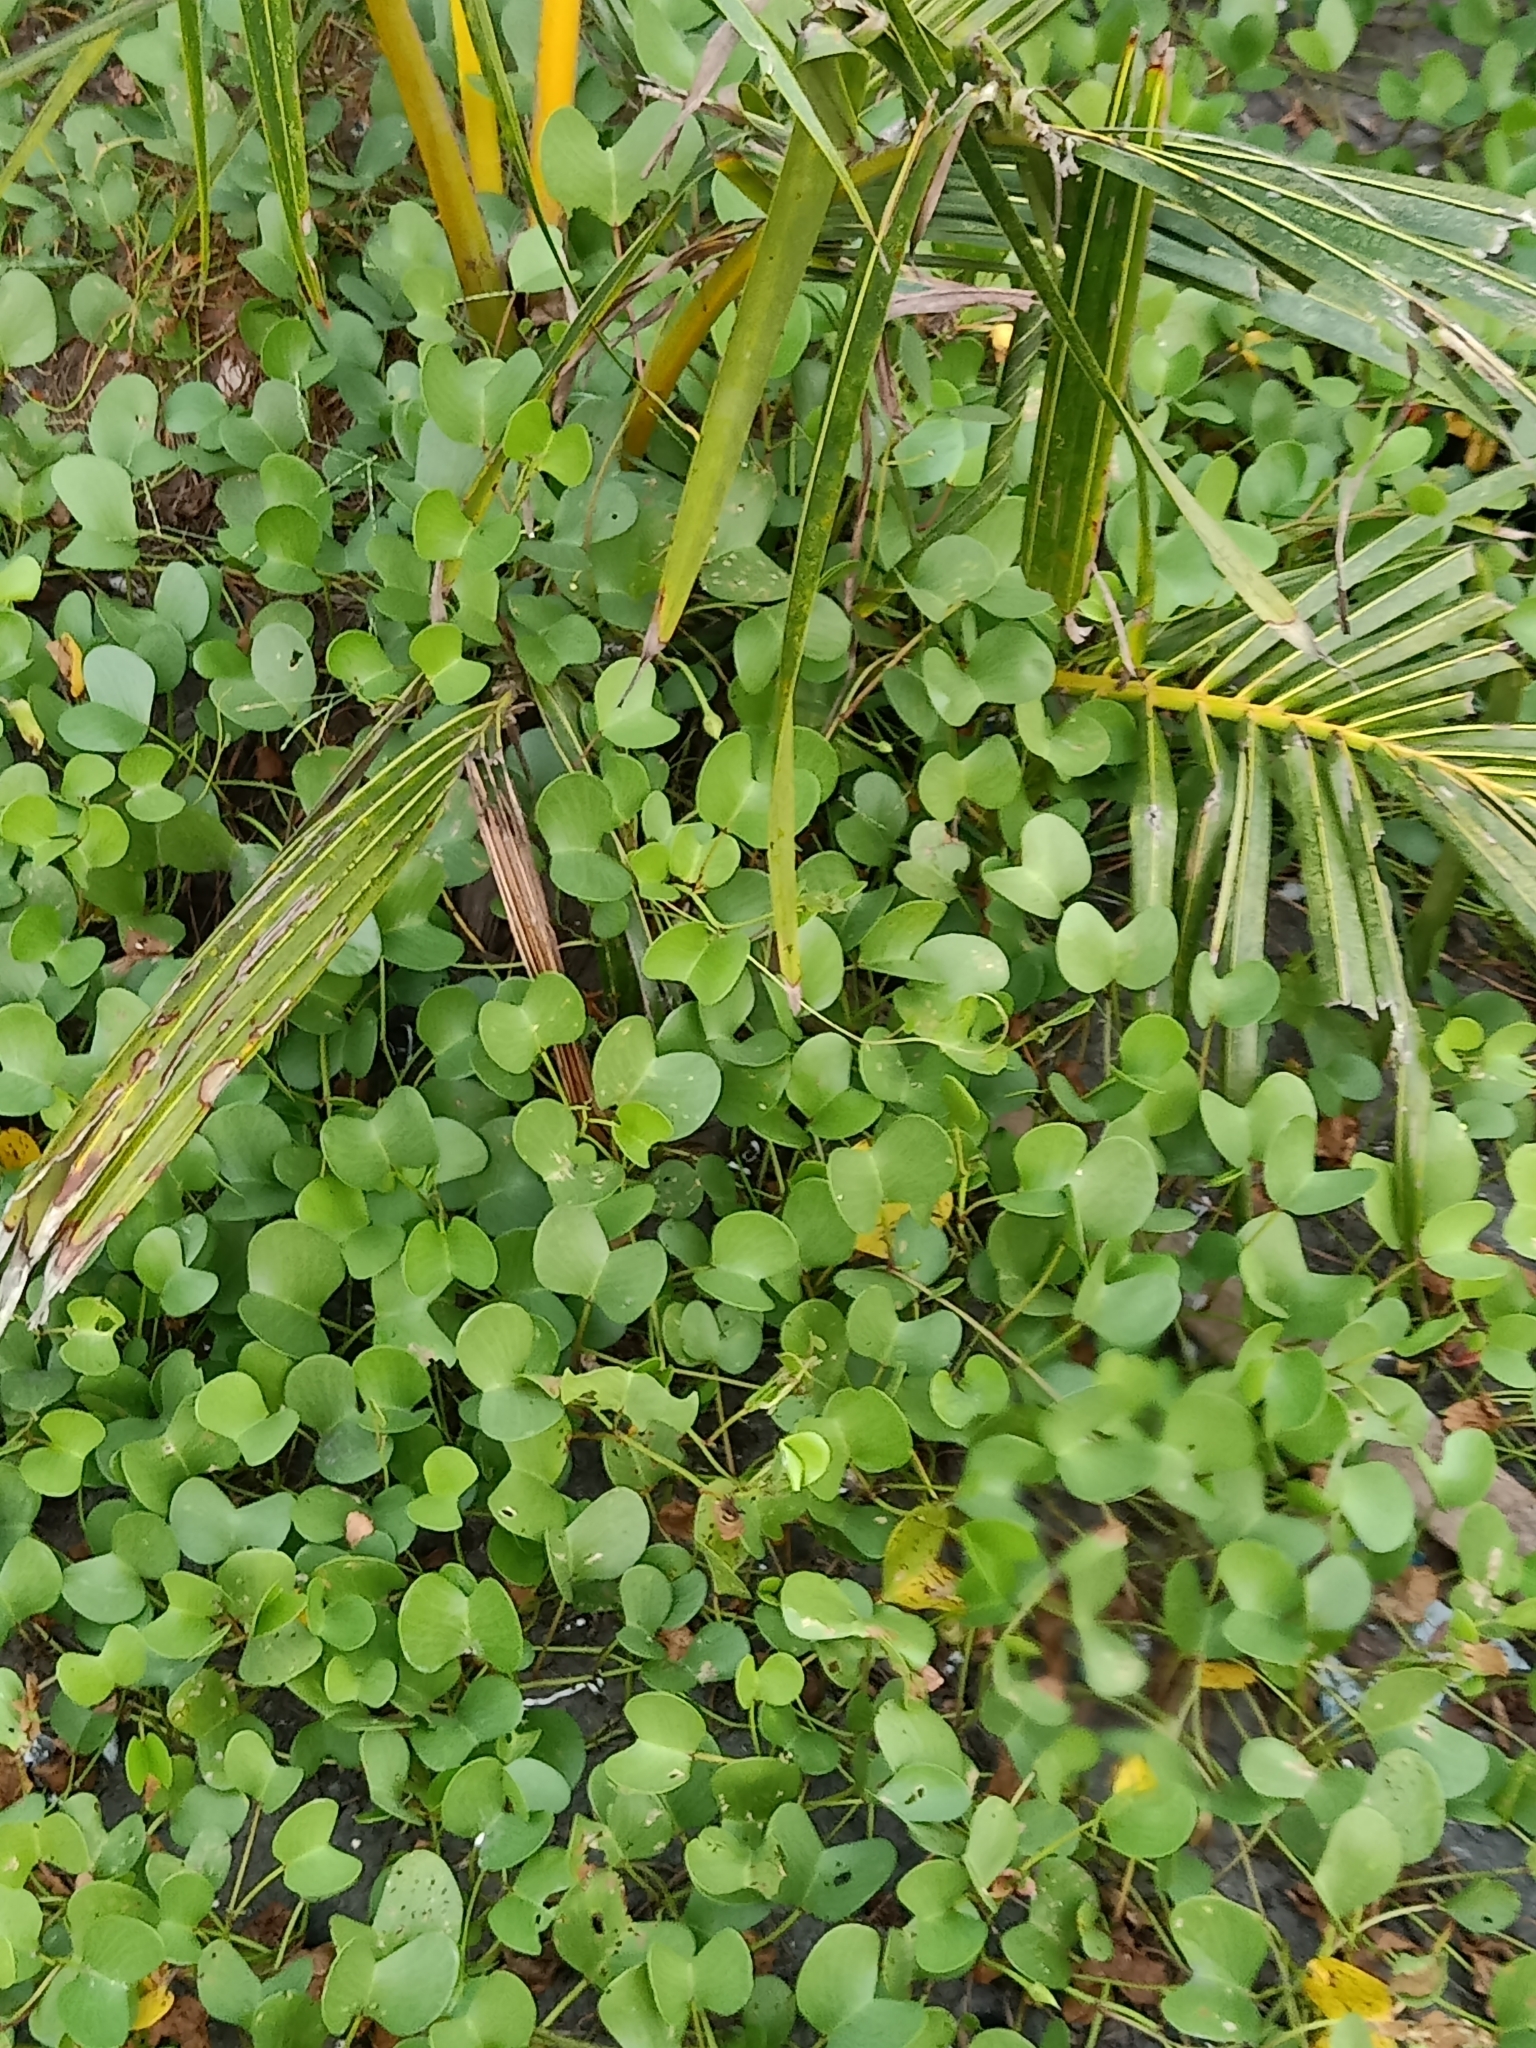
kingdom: Plantae
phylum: Tracheophyta
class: Magnoliopsida
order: Solanales
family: Convolvulaceae
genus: Ipomoea
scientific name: Ipomoea pes-caprae
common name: Beach morning glory
